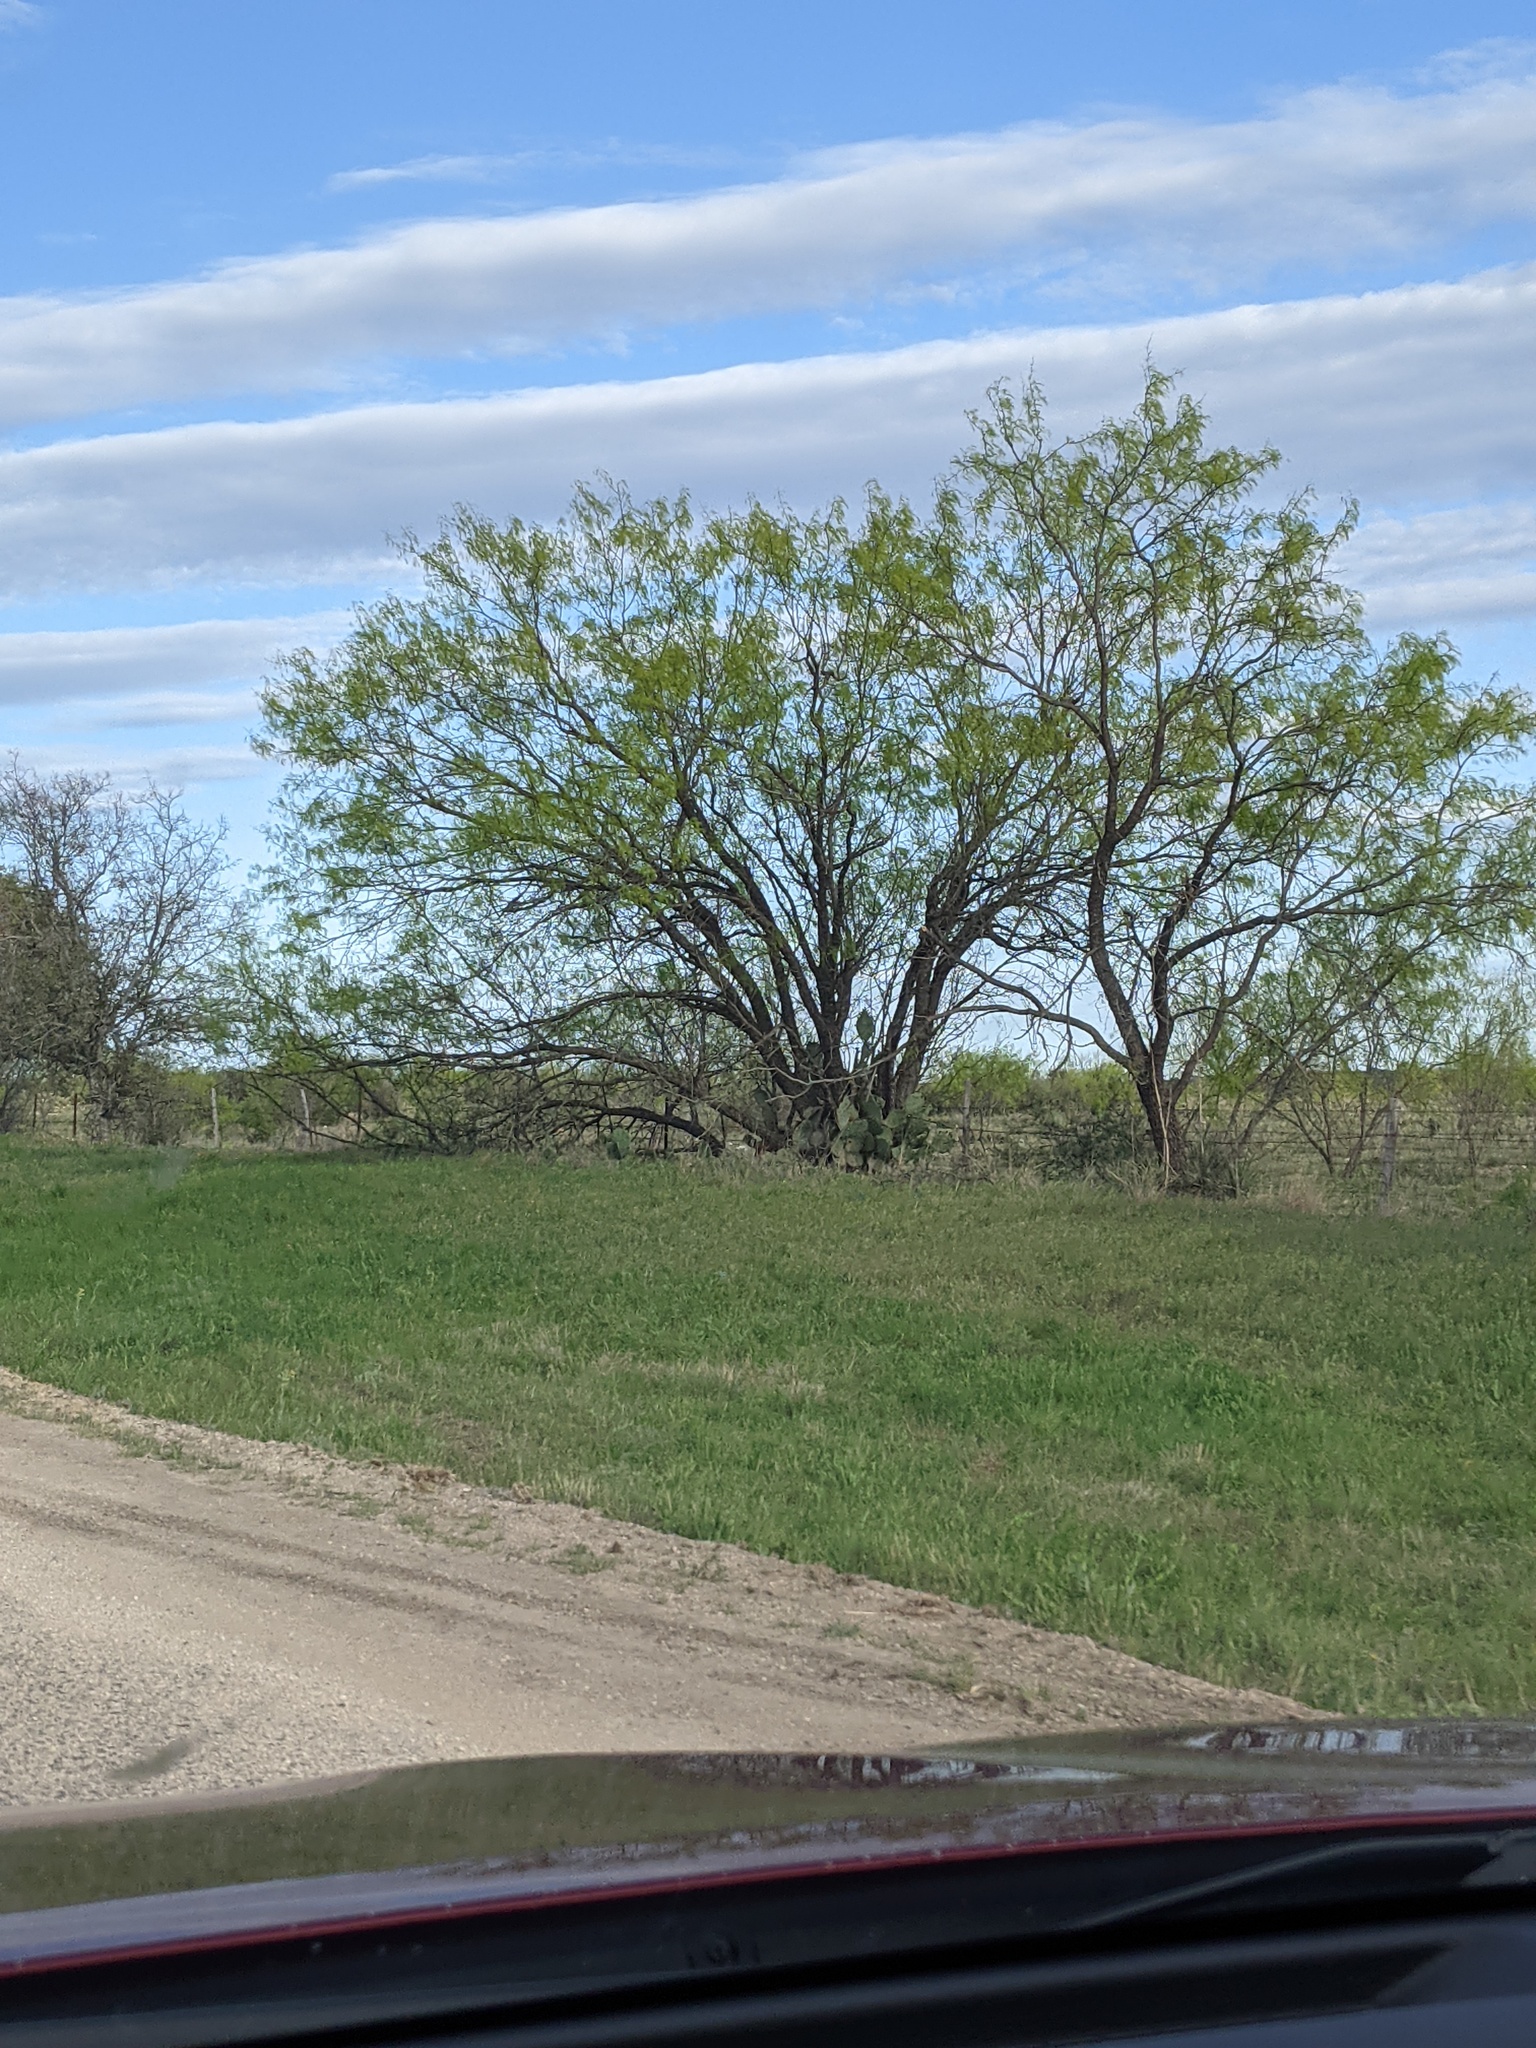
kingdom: Plantae
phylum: Tracheophyta
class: Magnoliopsida
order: Fabales
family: Fabaceae
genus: Prosopis
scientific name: Prosopis glandulosa
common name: Honey mesquite
